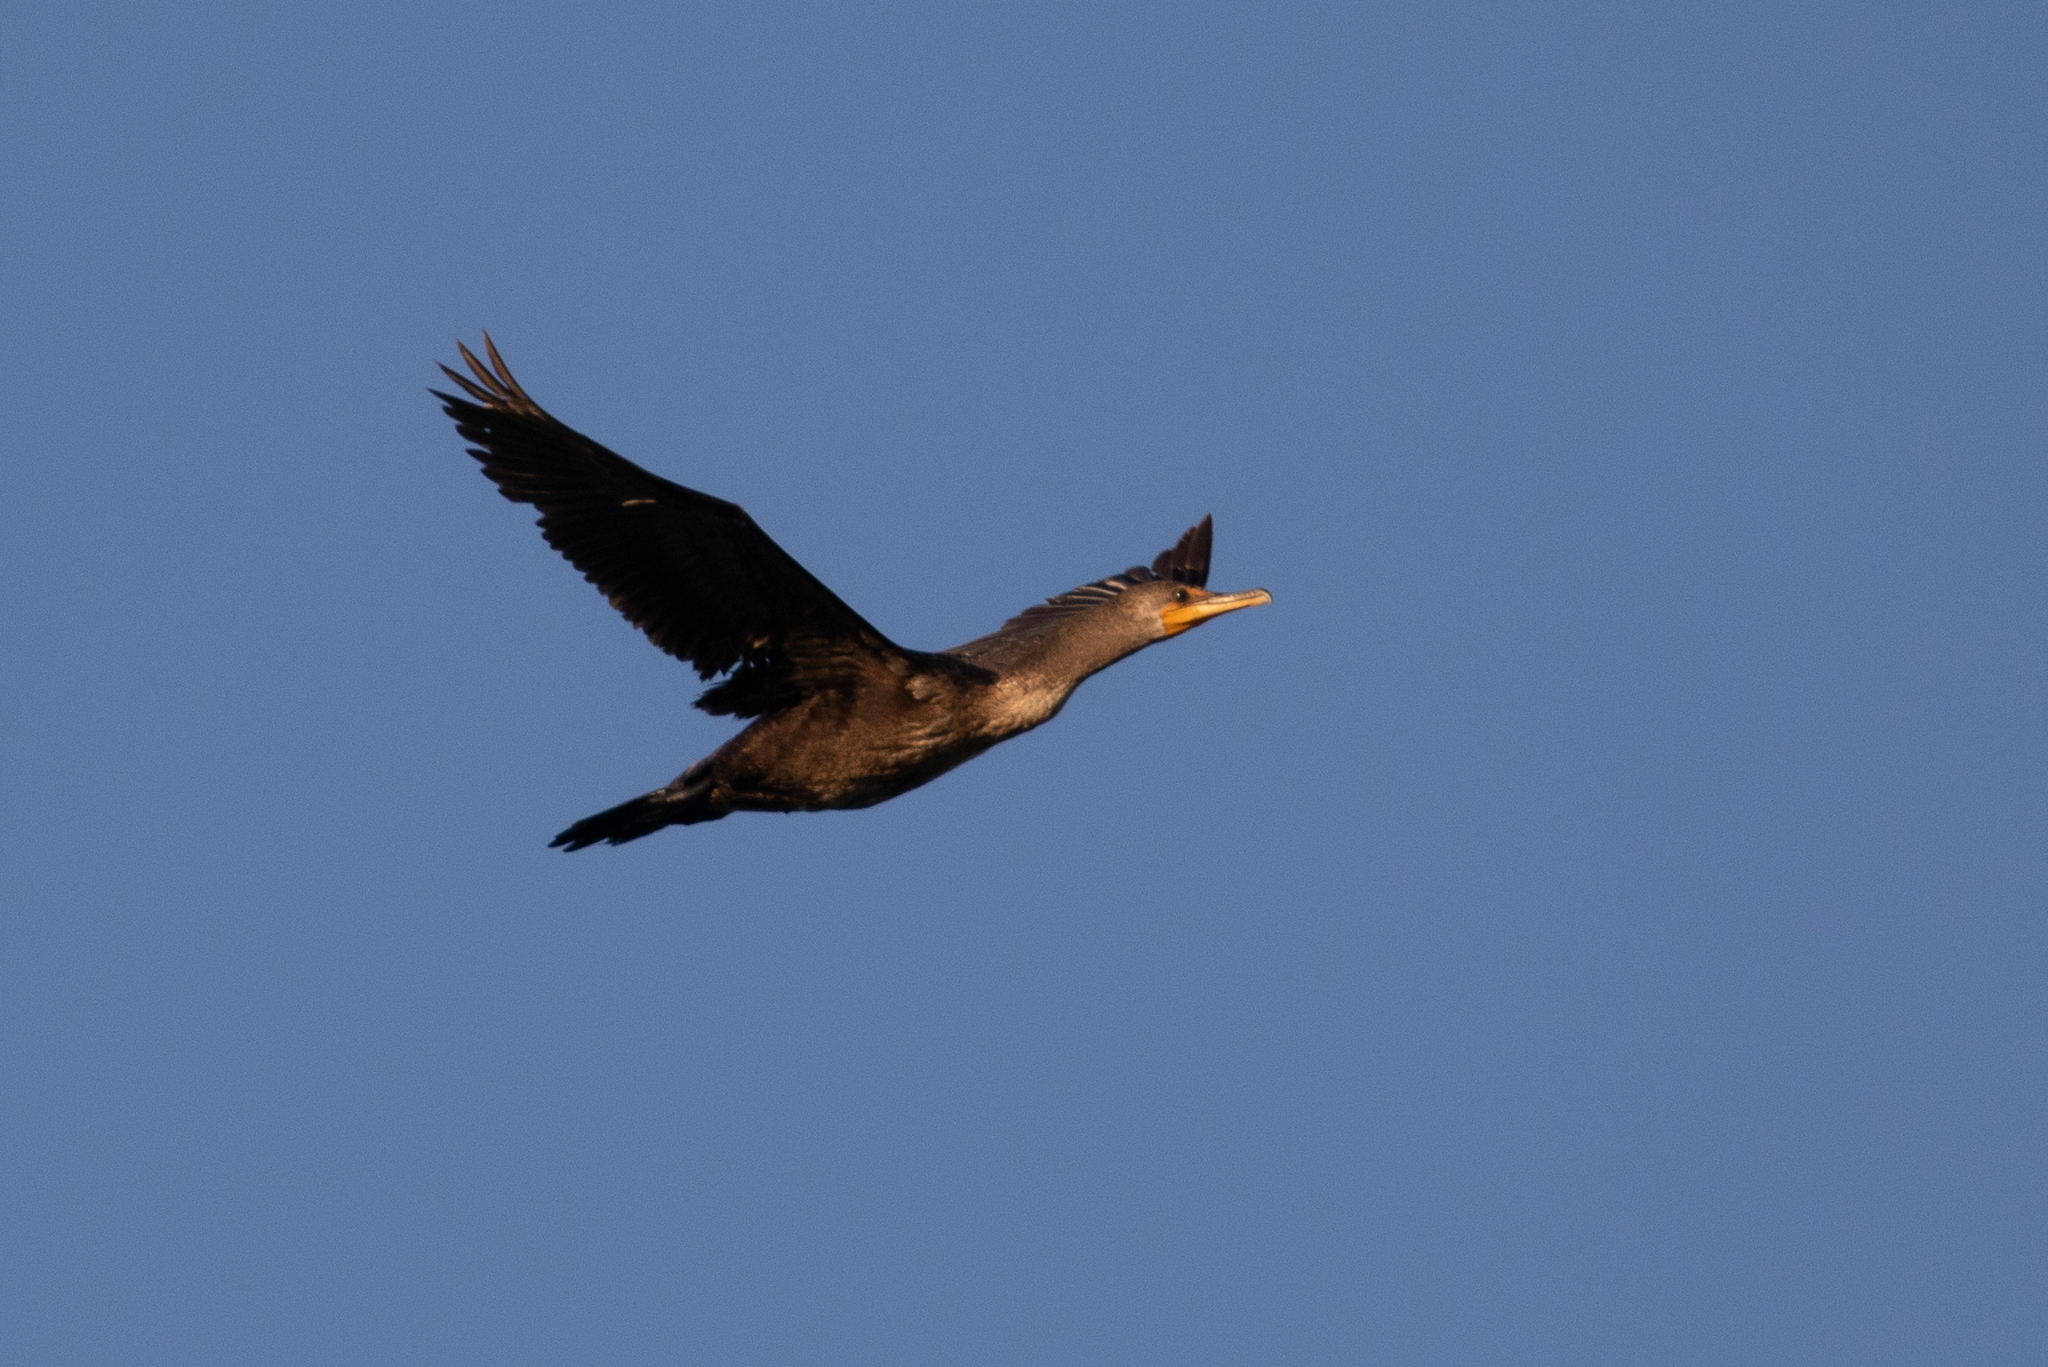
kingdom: Animalia
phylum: Chordata
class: Aves
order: Suliformes
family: Phalacrocoracidae
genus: Phalacrocorax
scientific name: Phalacrocorax auritus
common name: Double-crested cormorant
